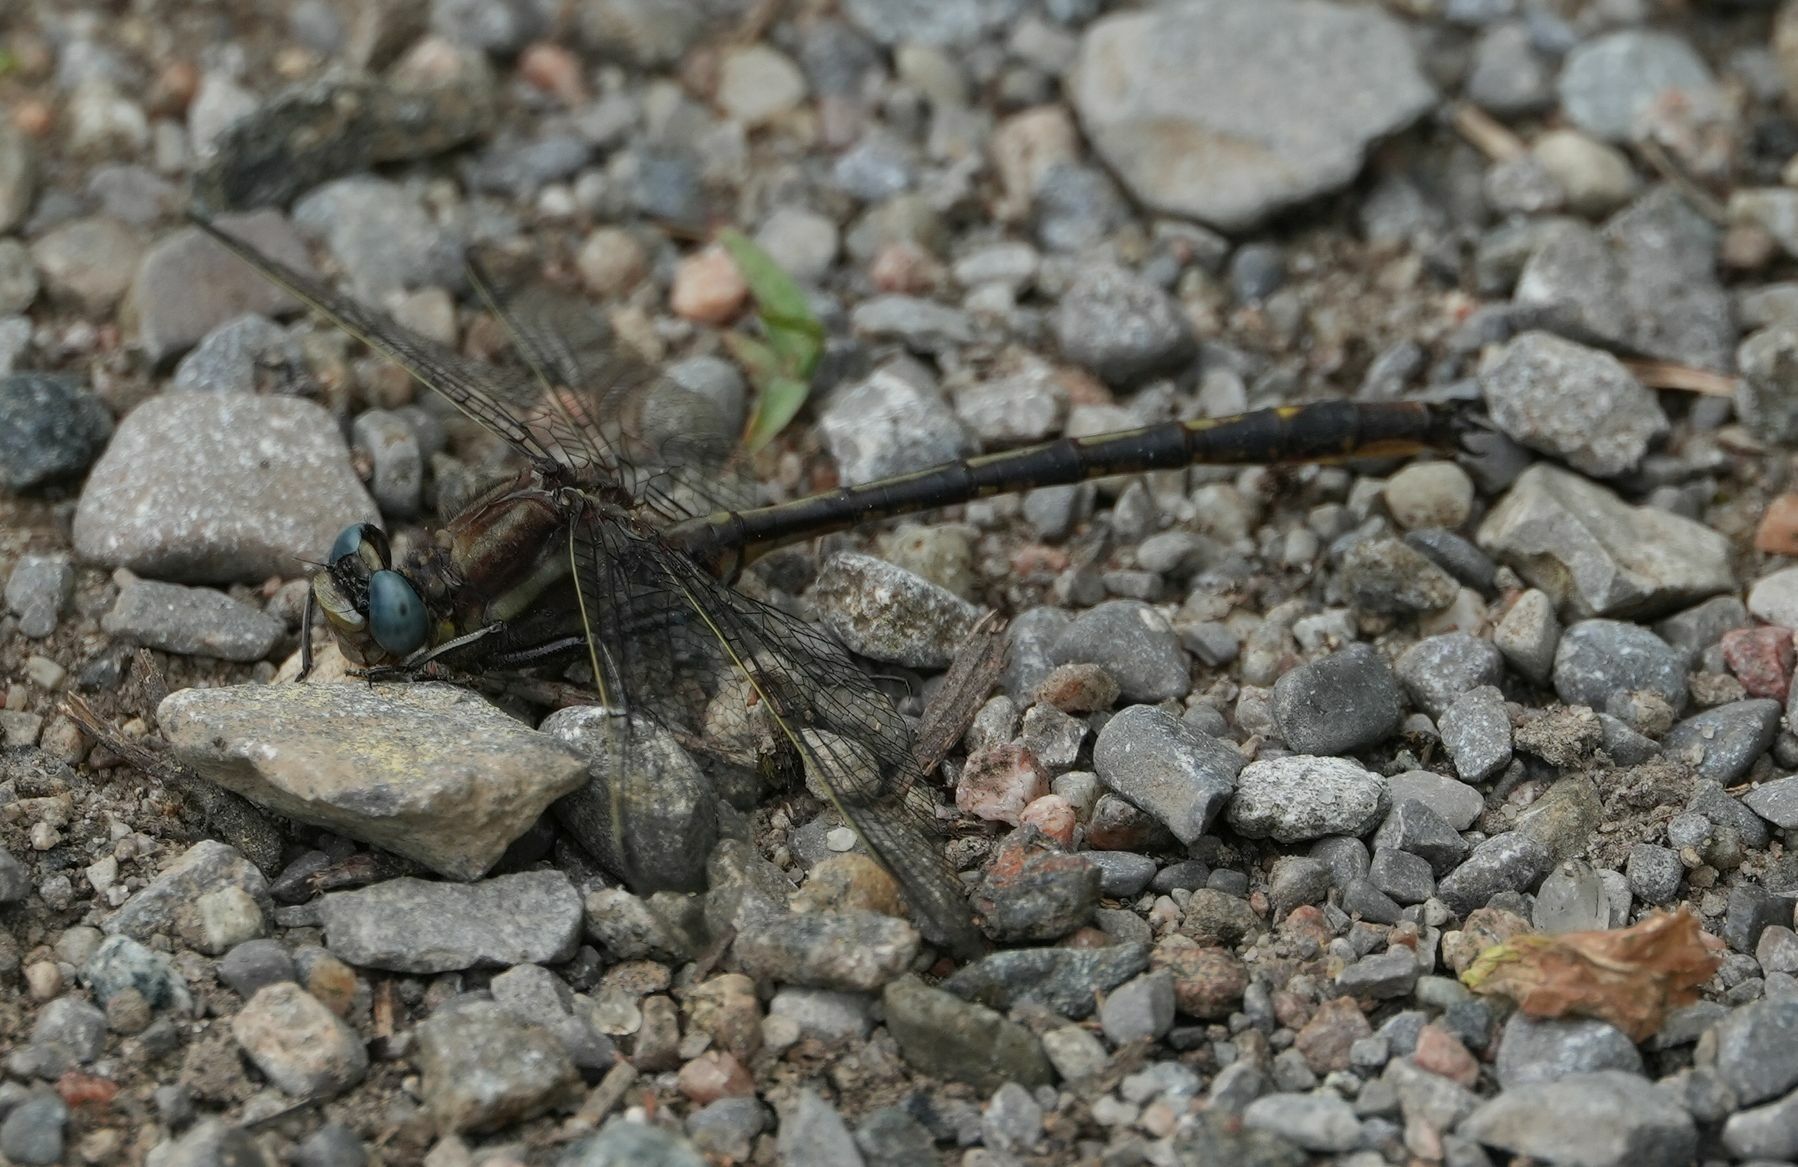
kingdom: Animalia
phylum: Arthropoda
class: Insecta
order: Odonata
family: Gomphidae
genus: Phanogomphus
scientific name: Phanogomphus spicatus
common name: Dusky clubtail
